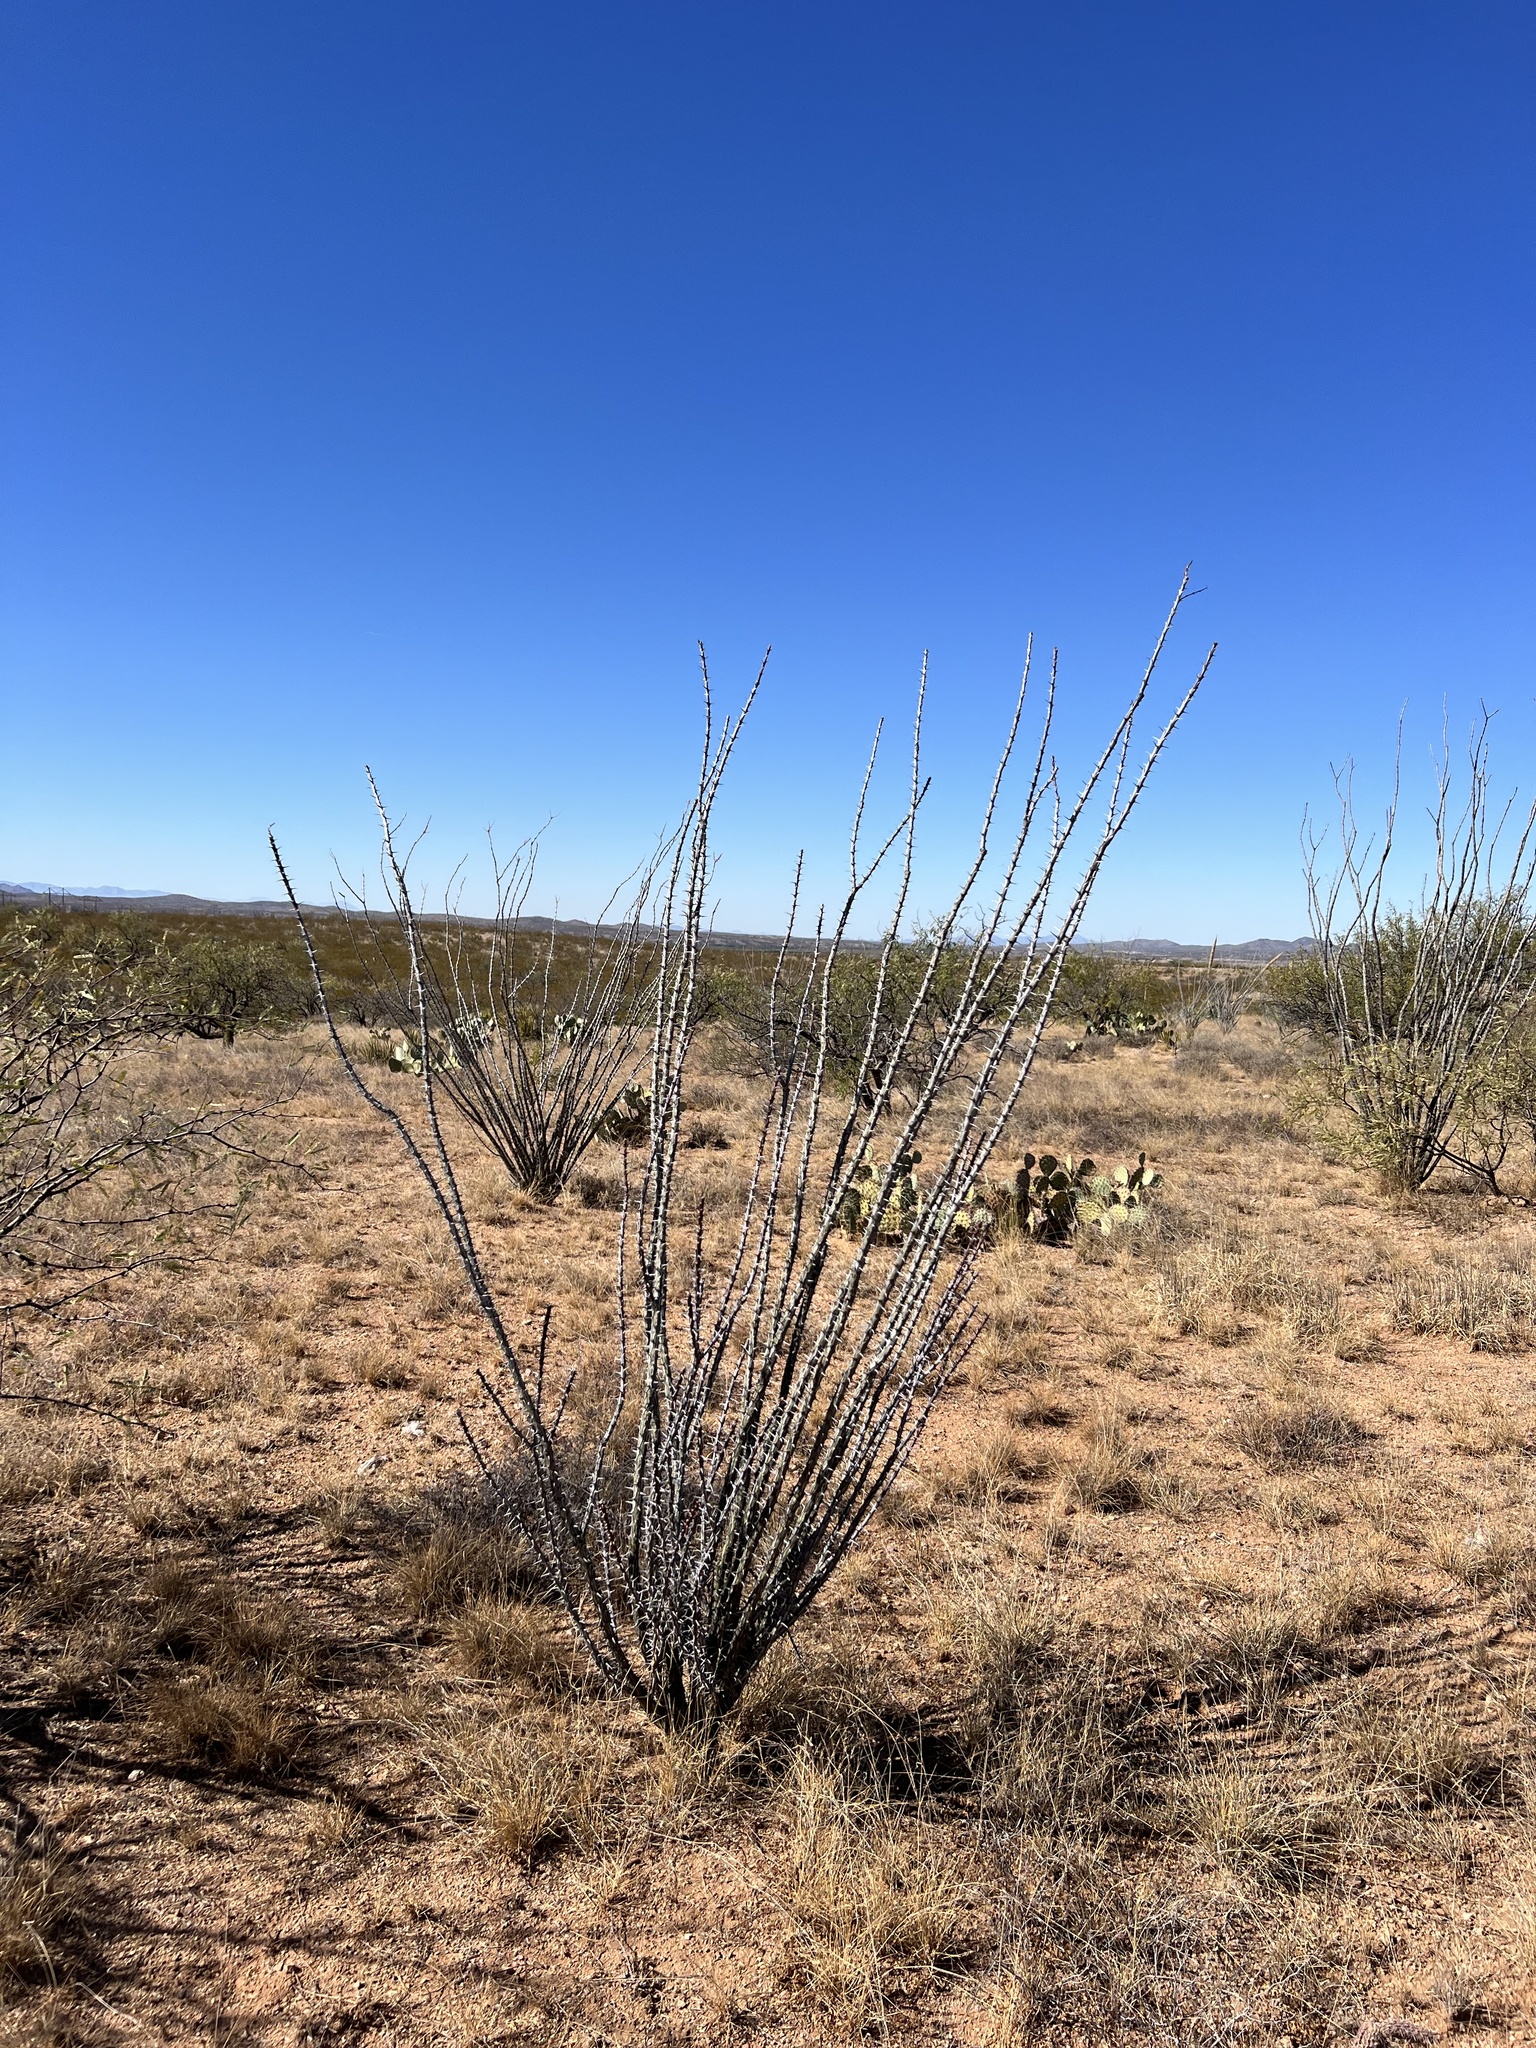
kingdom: Plantae
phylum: Tracheophyta
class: Magnoliopsida
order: Ericales
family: Fouquieriaceae
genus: Fouquieria
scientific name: Fouquieria splendens
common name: Vine-cactus
